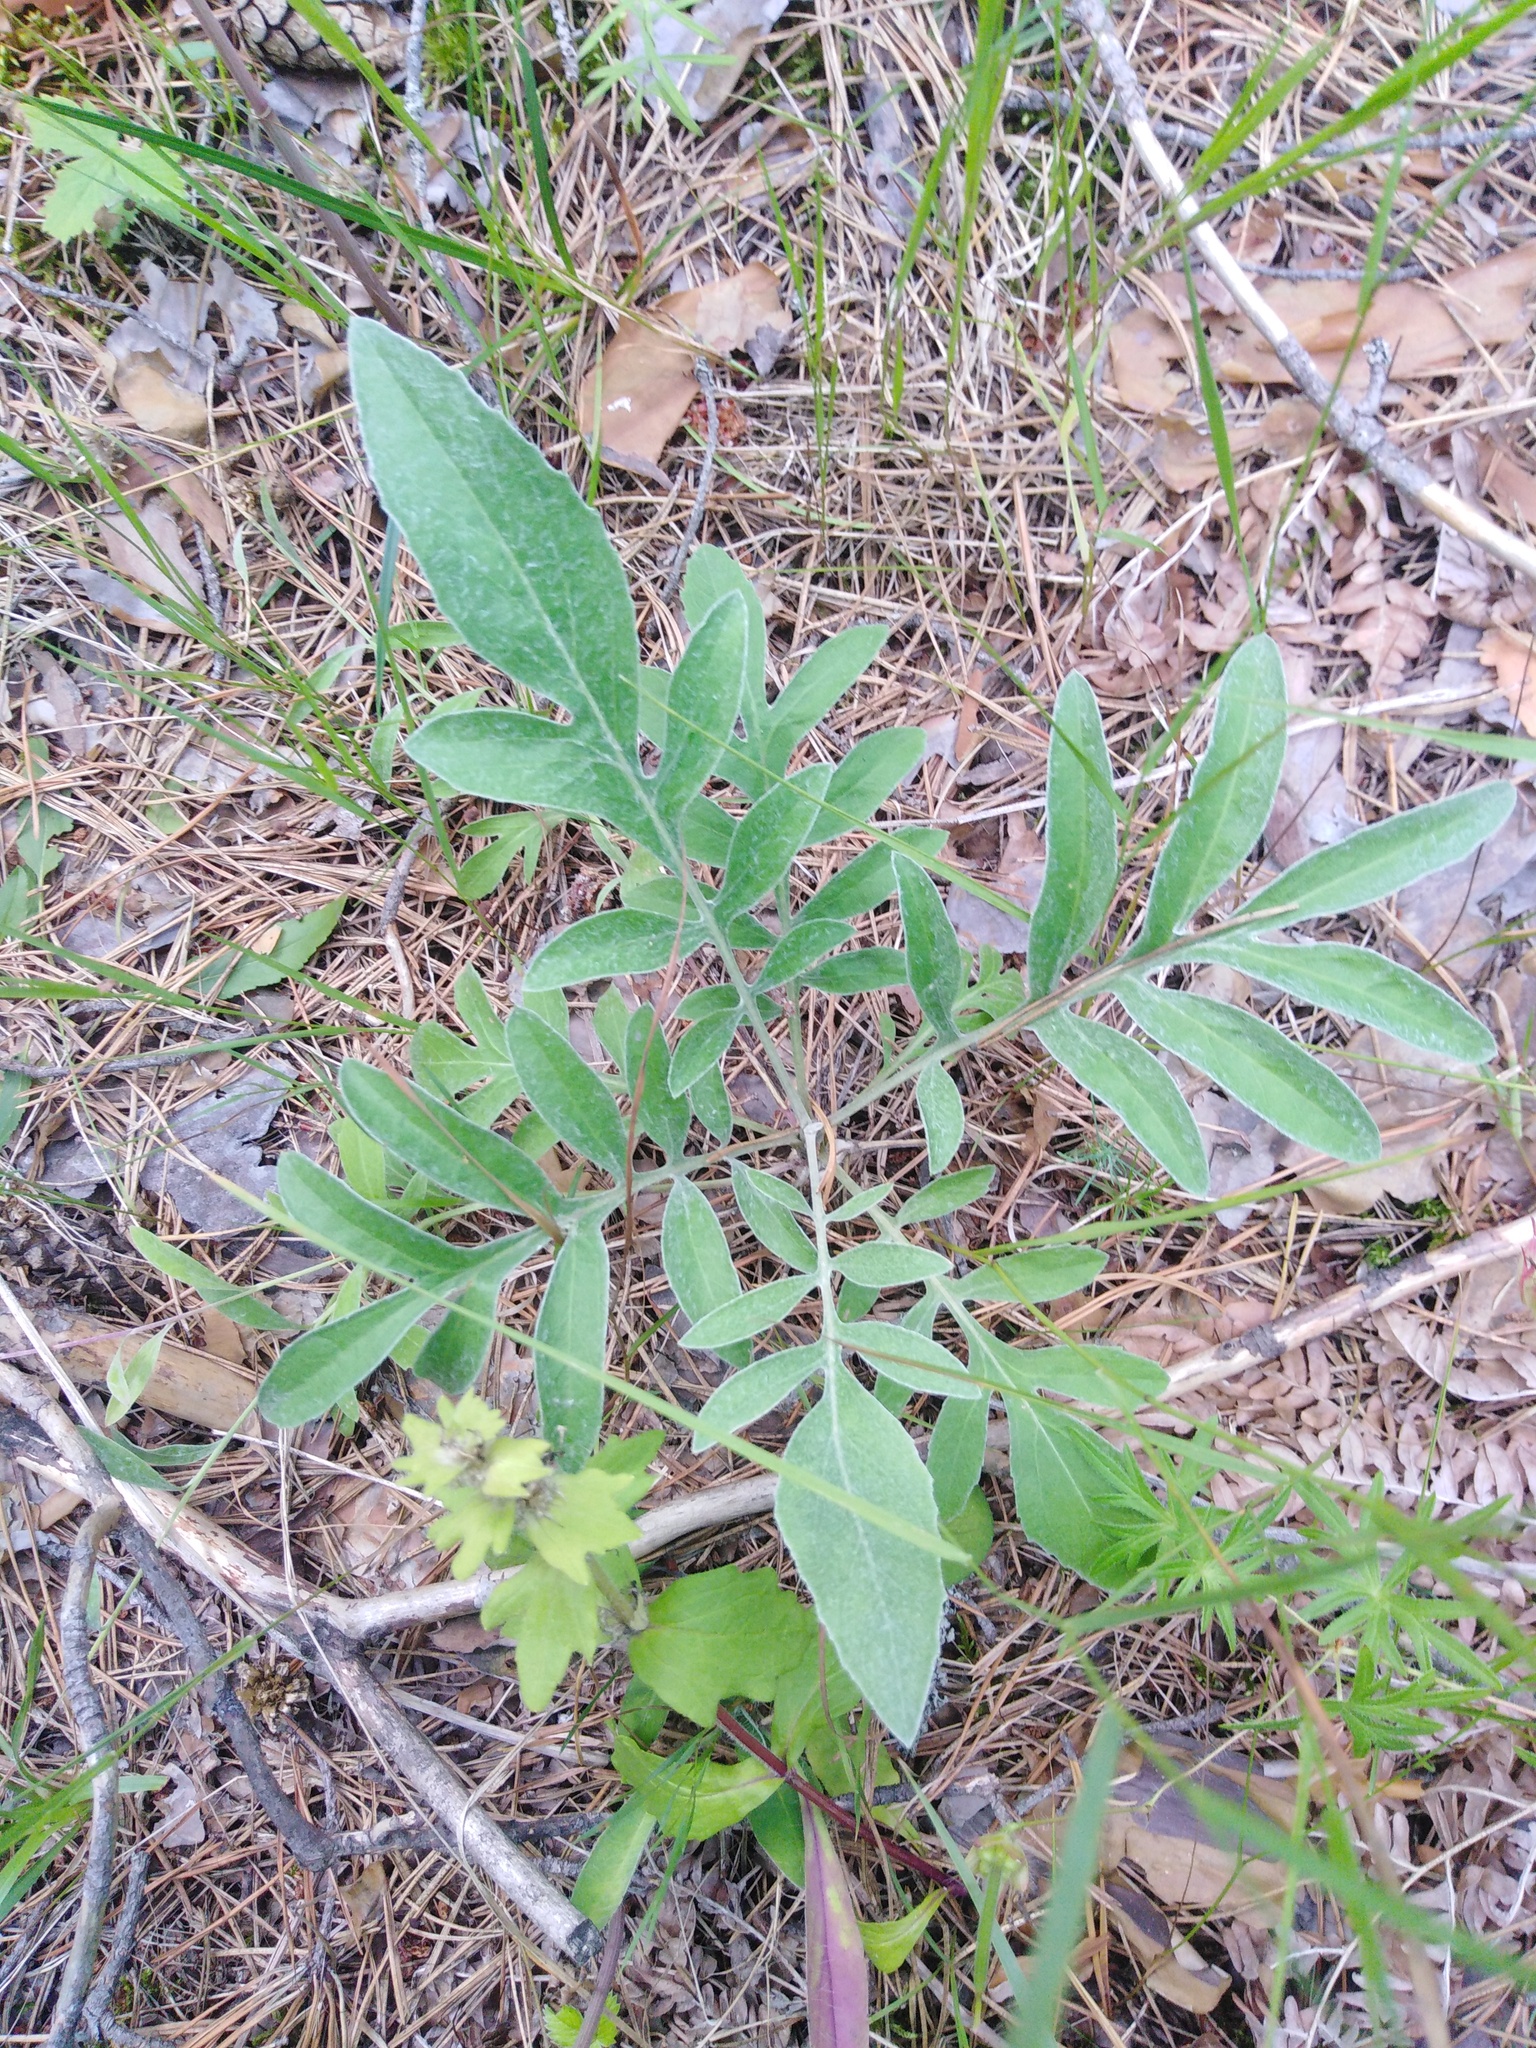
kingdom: Plantae
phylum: Tracheophyta
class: Magnoliopsida
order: Asterales
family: Asteraceae
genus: Psephellus
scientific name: Psephellus sumensis
